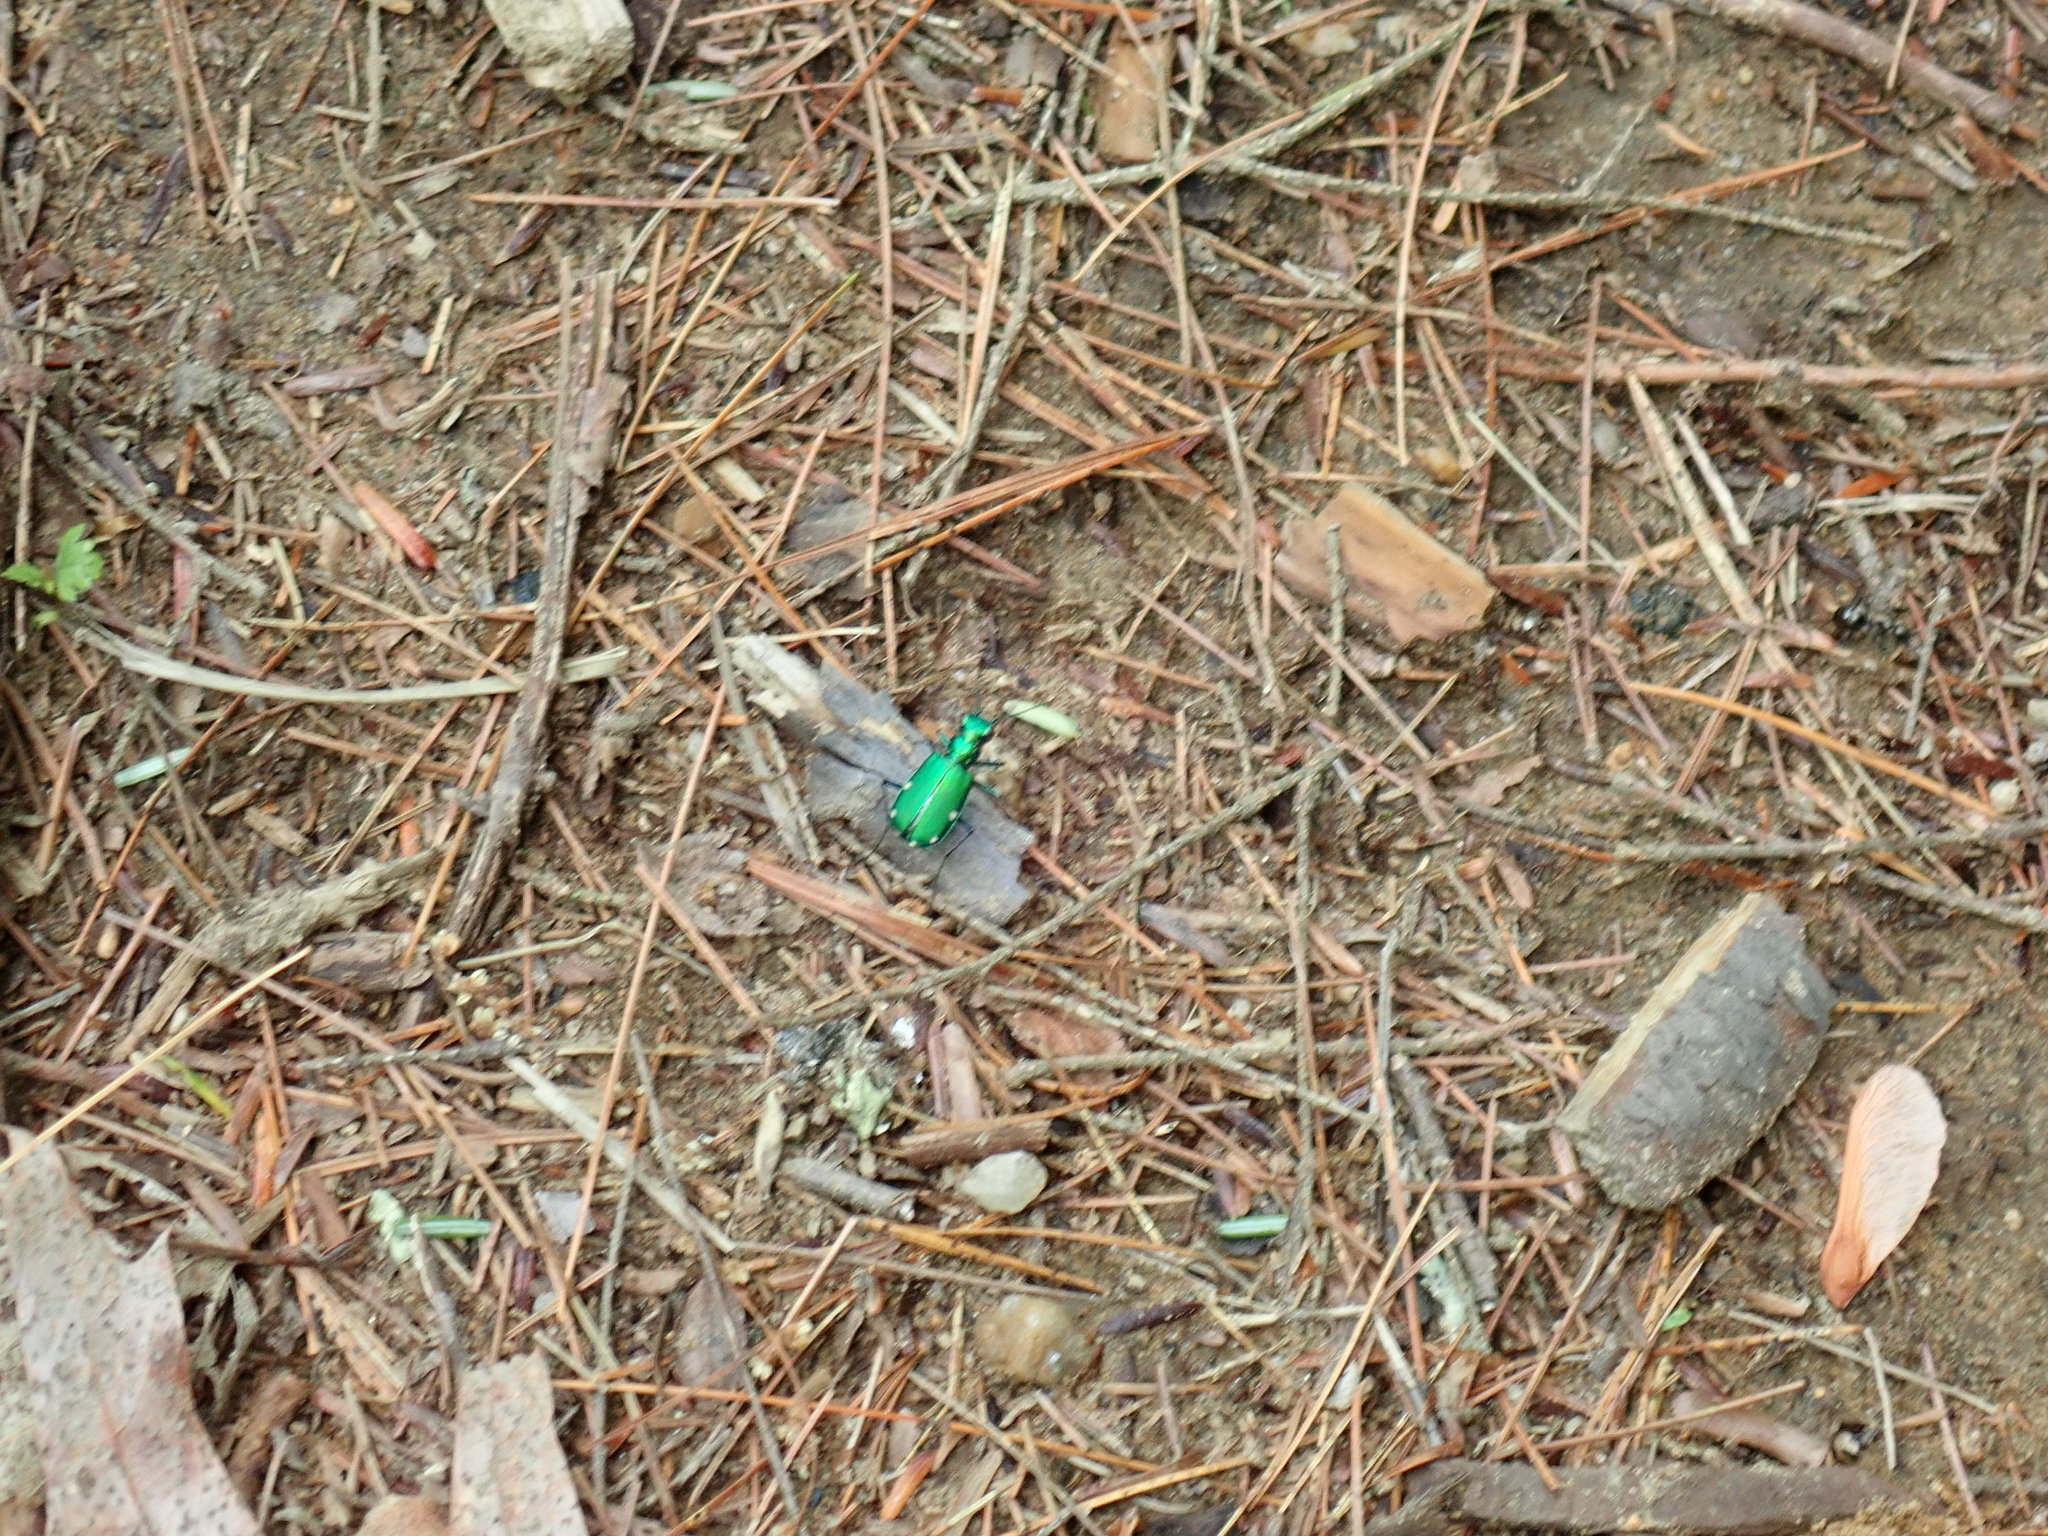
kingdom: Animalia
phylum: Arthropoda
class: Insecta
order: Coleoptera
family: Carabidae
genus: Cicindela
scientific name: Cicindela sexguttata
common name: Six-spotted tiger beetle
